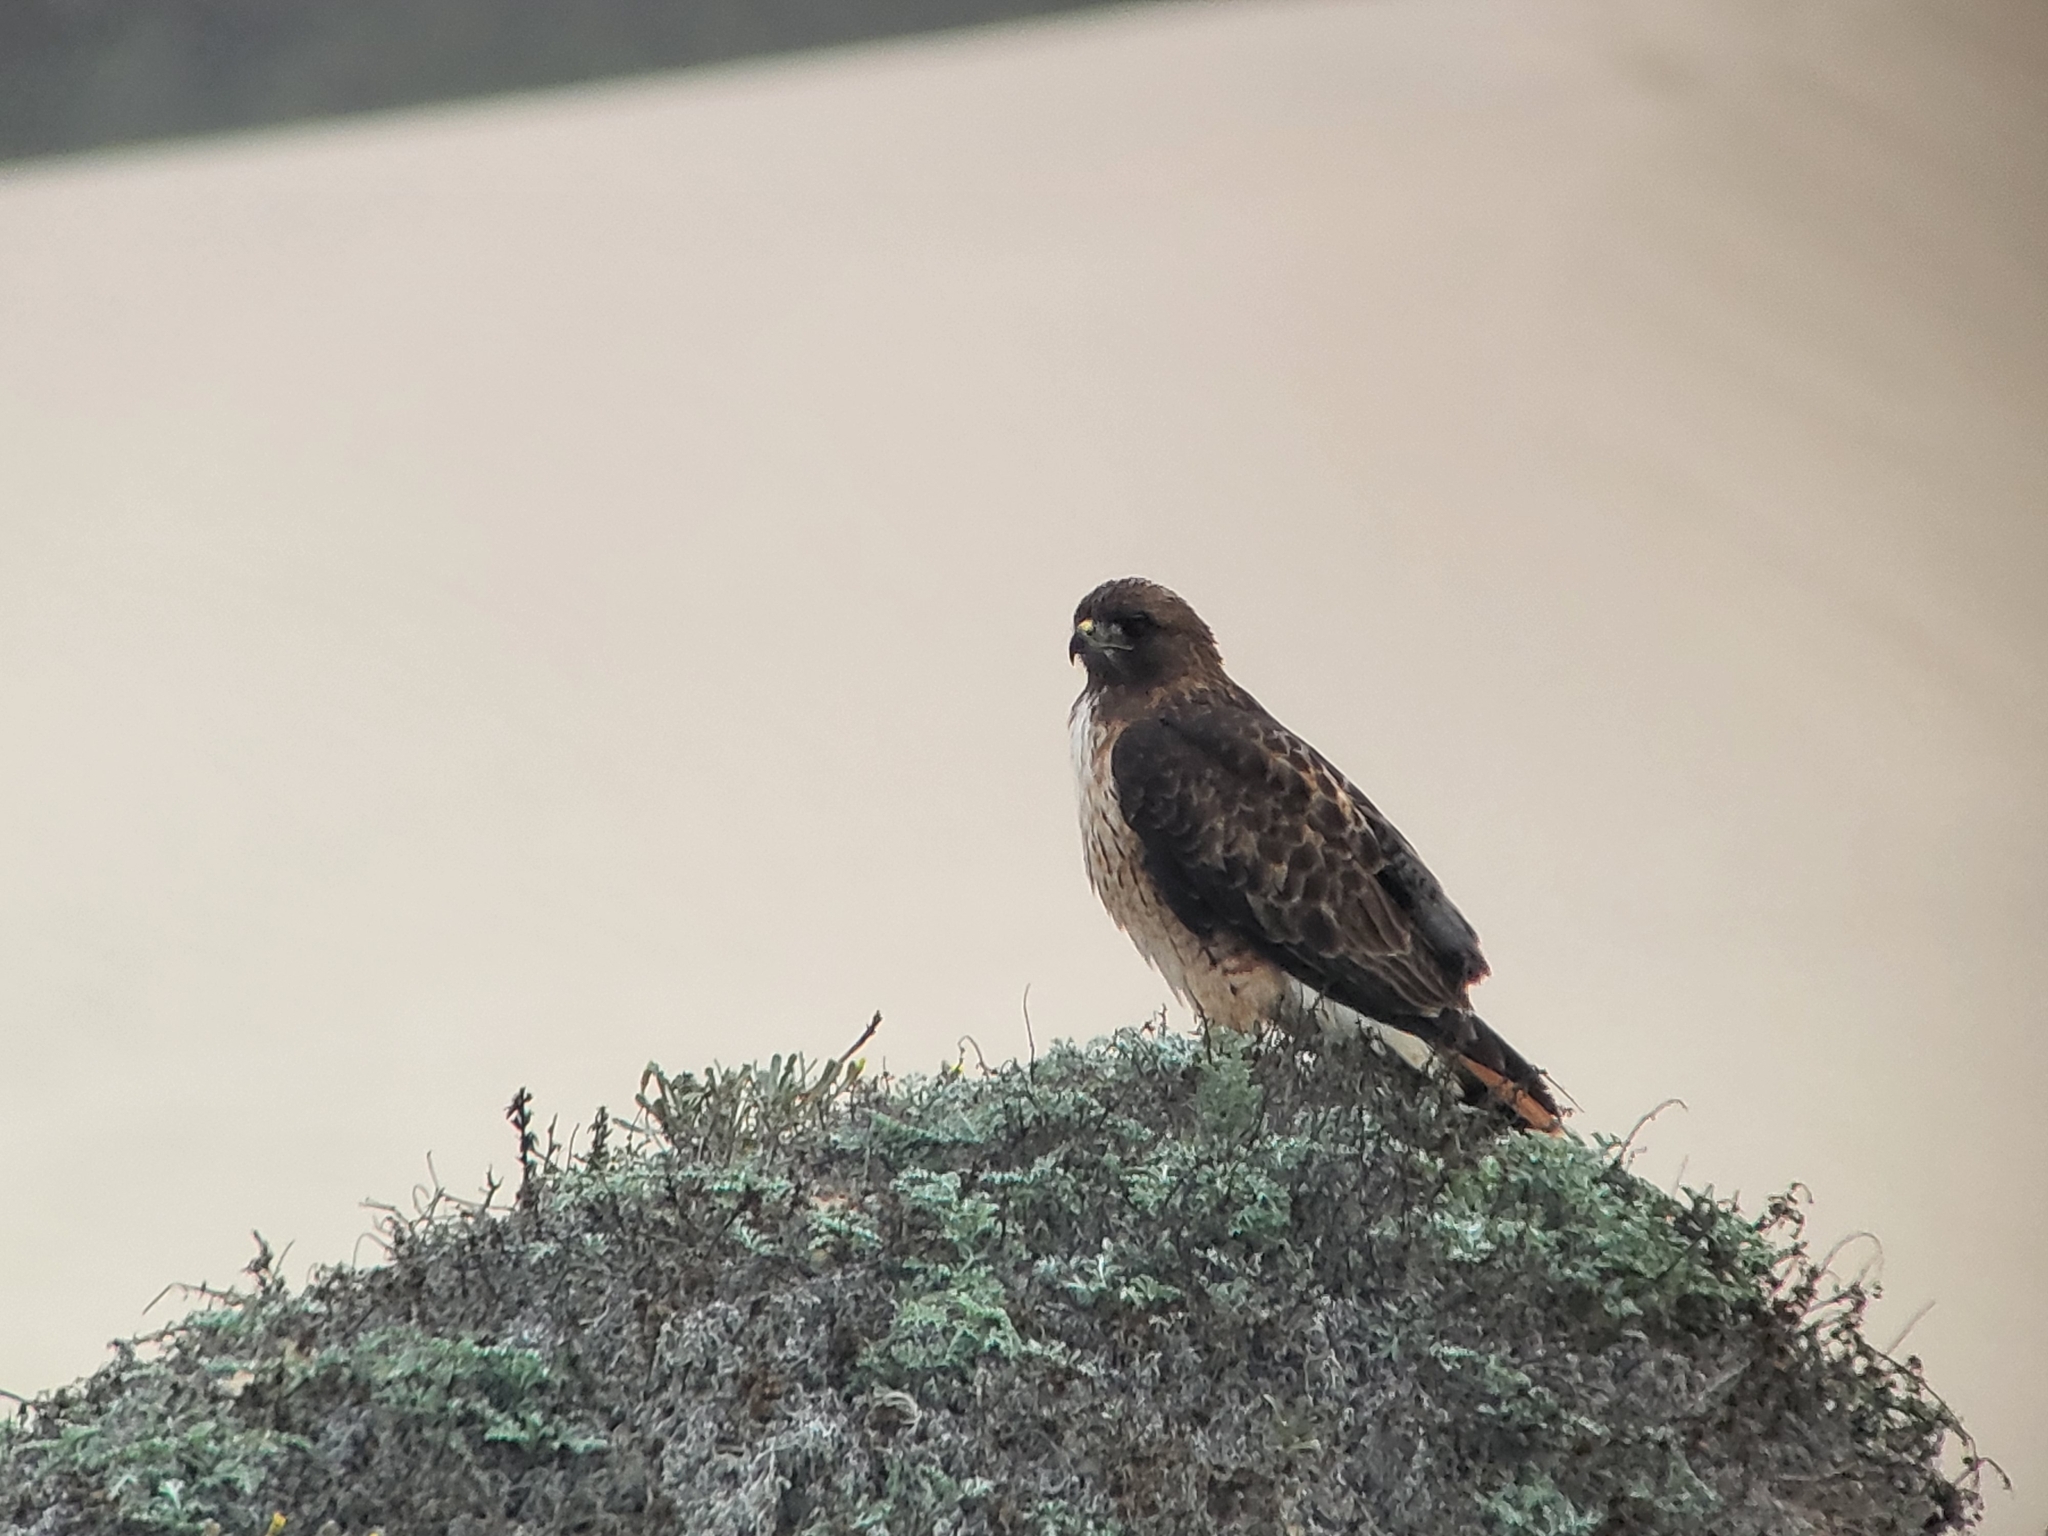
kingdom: Animalia
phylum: Chordata
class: Aves
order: Accipitriformes
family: Accipitridae
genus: Buteo
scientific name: Buteo jamaicensis
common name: Red-tailed hawk
